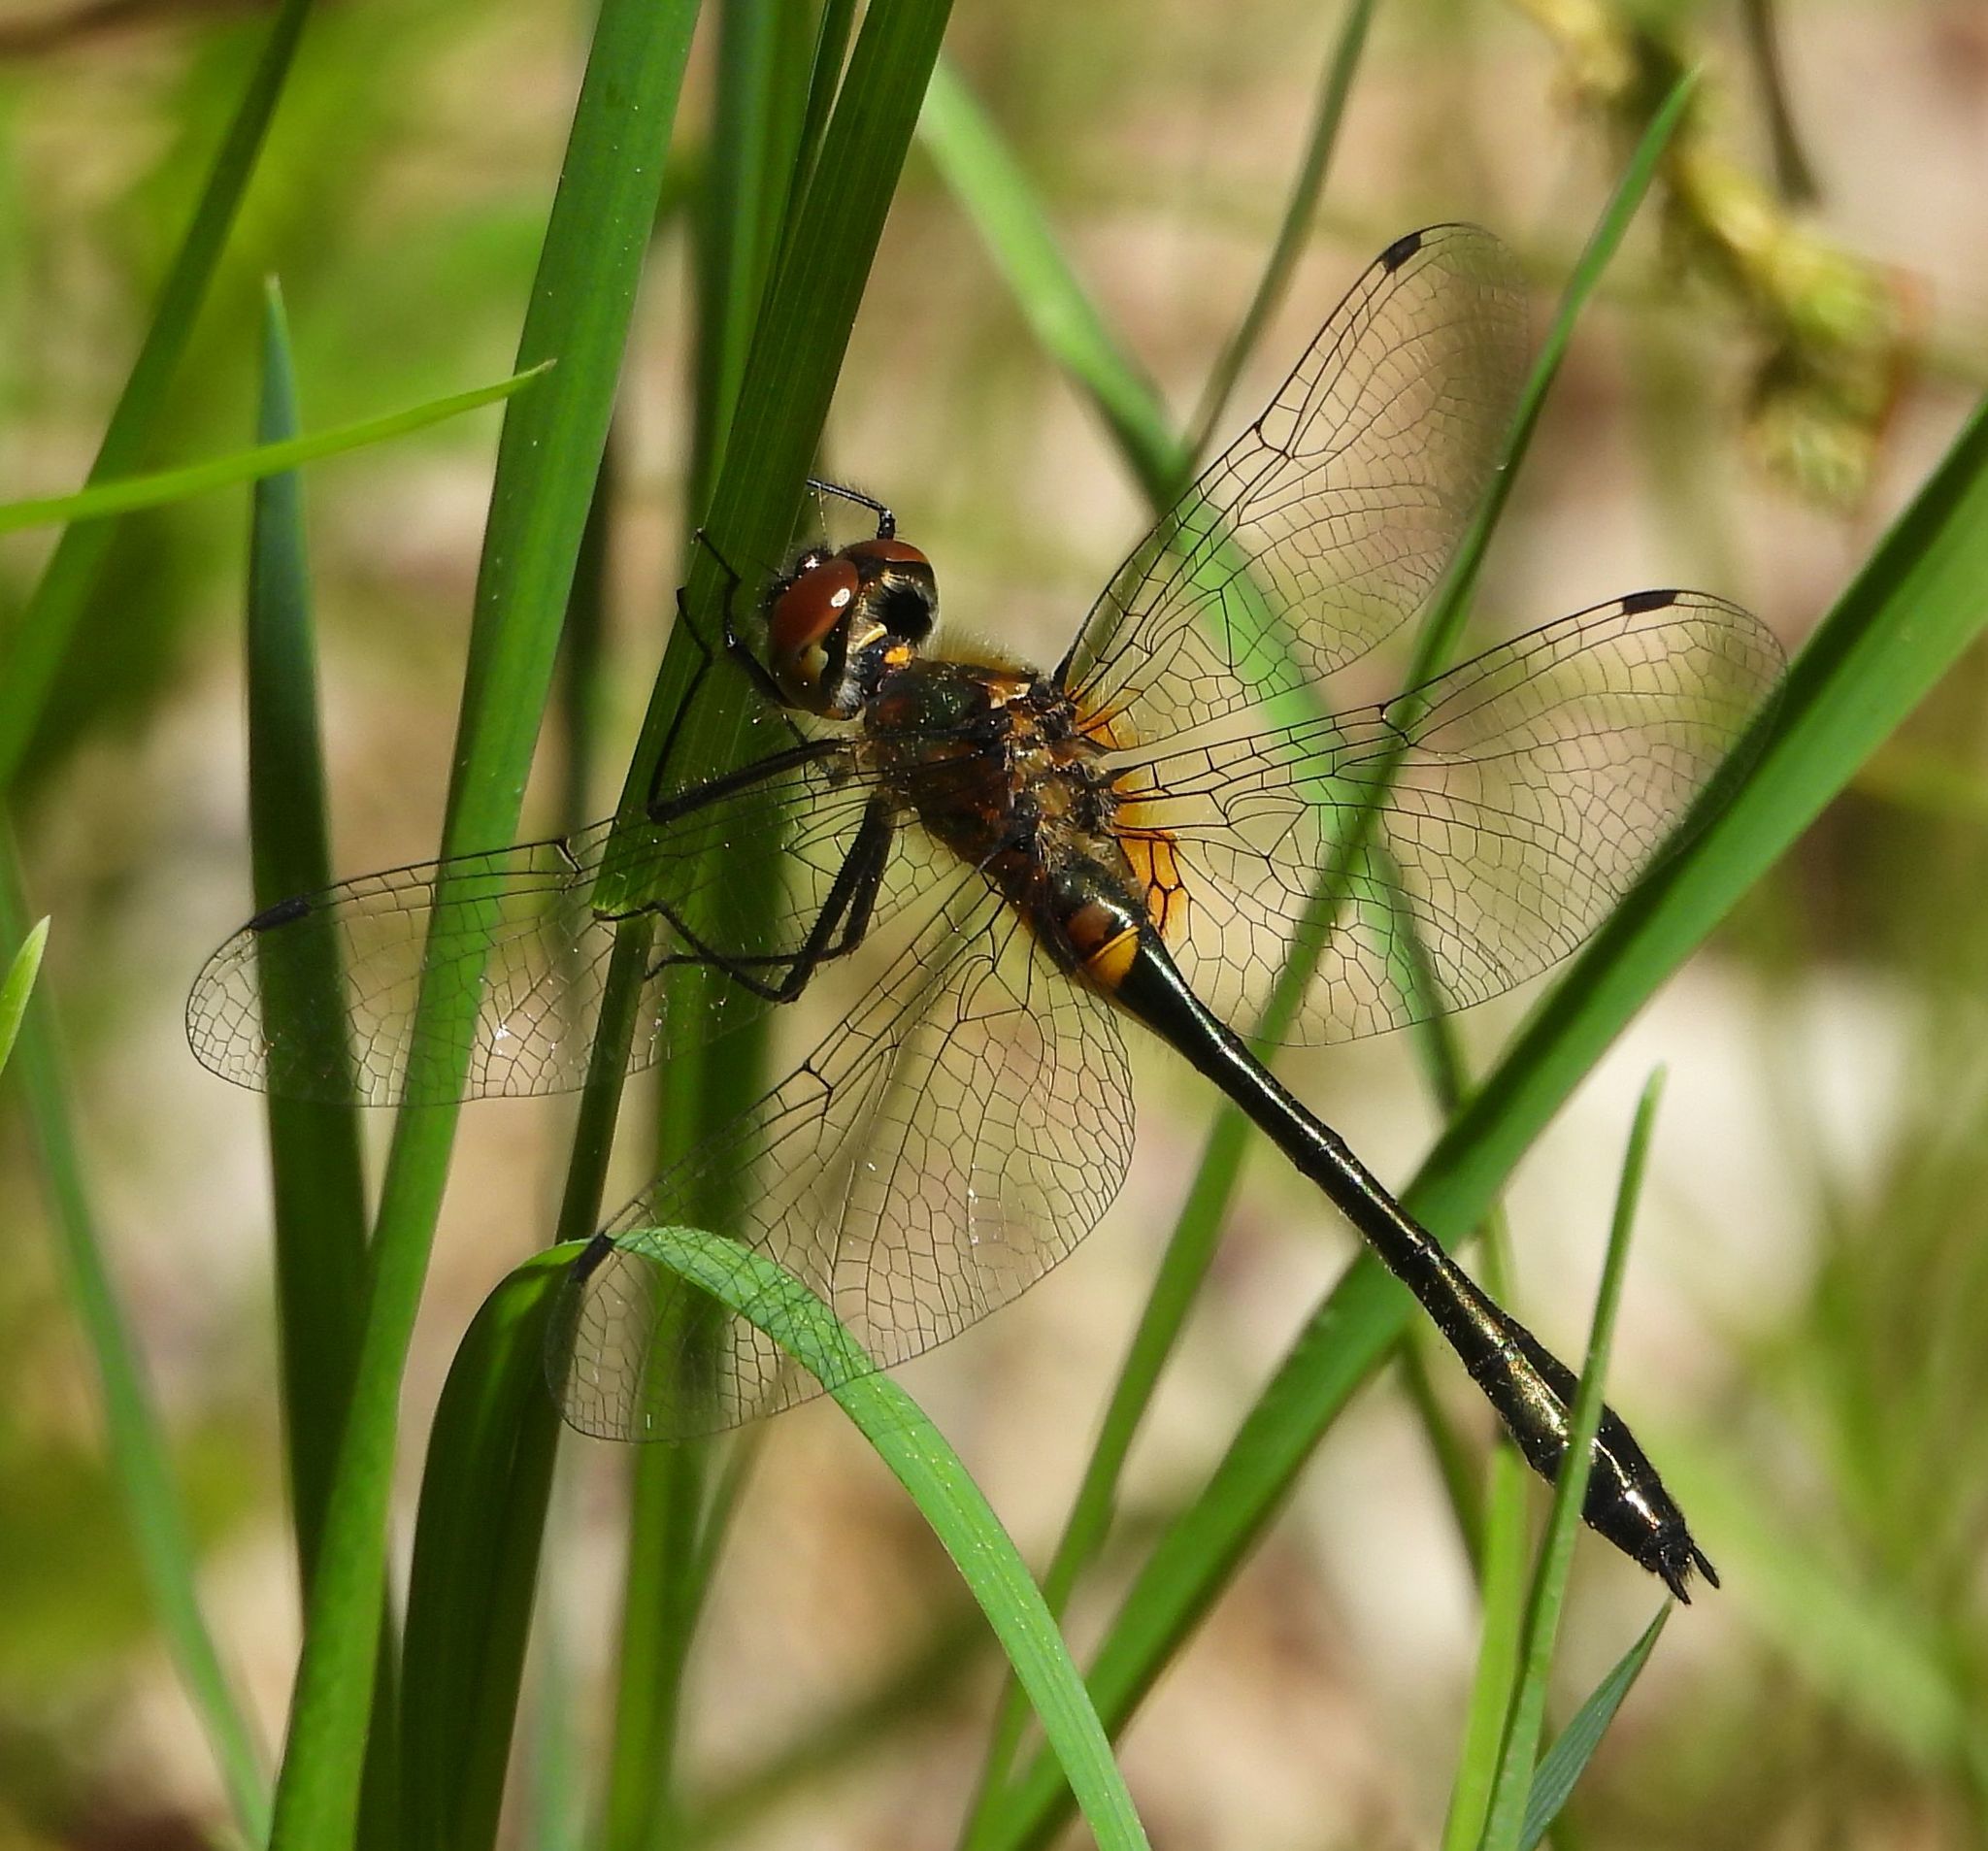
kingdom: Animalia
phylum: Arthropoda
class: Insecta
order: Odonata
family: Corduliidae
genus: Dorocordulia
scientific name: Dorocordulia libera
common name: Racket-tailed emerald
